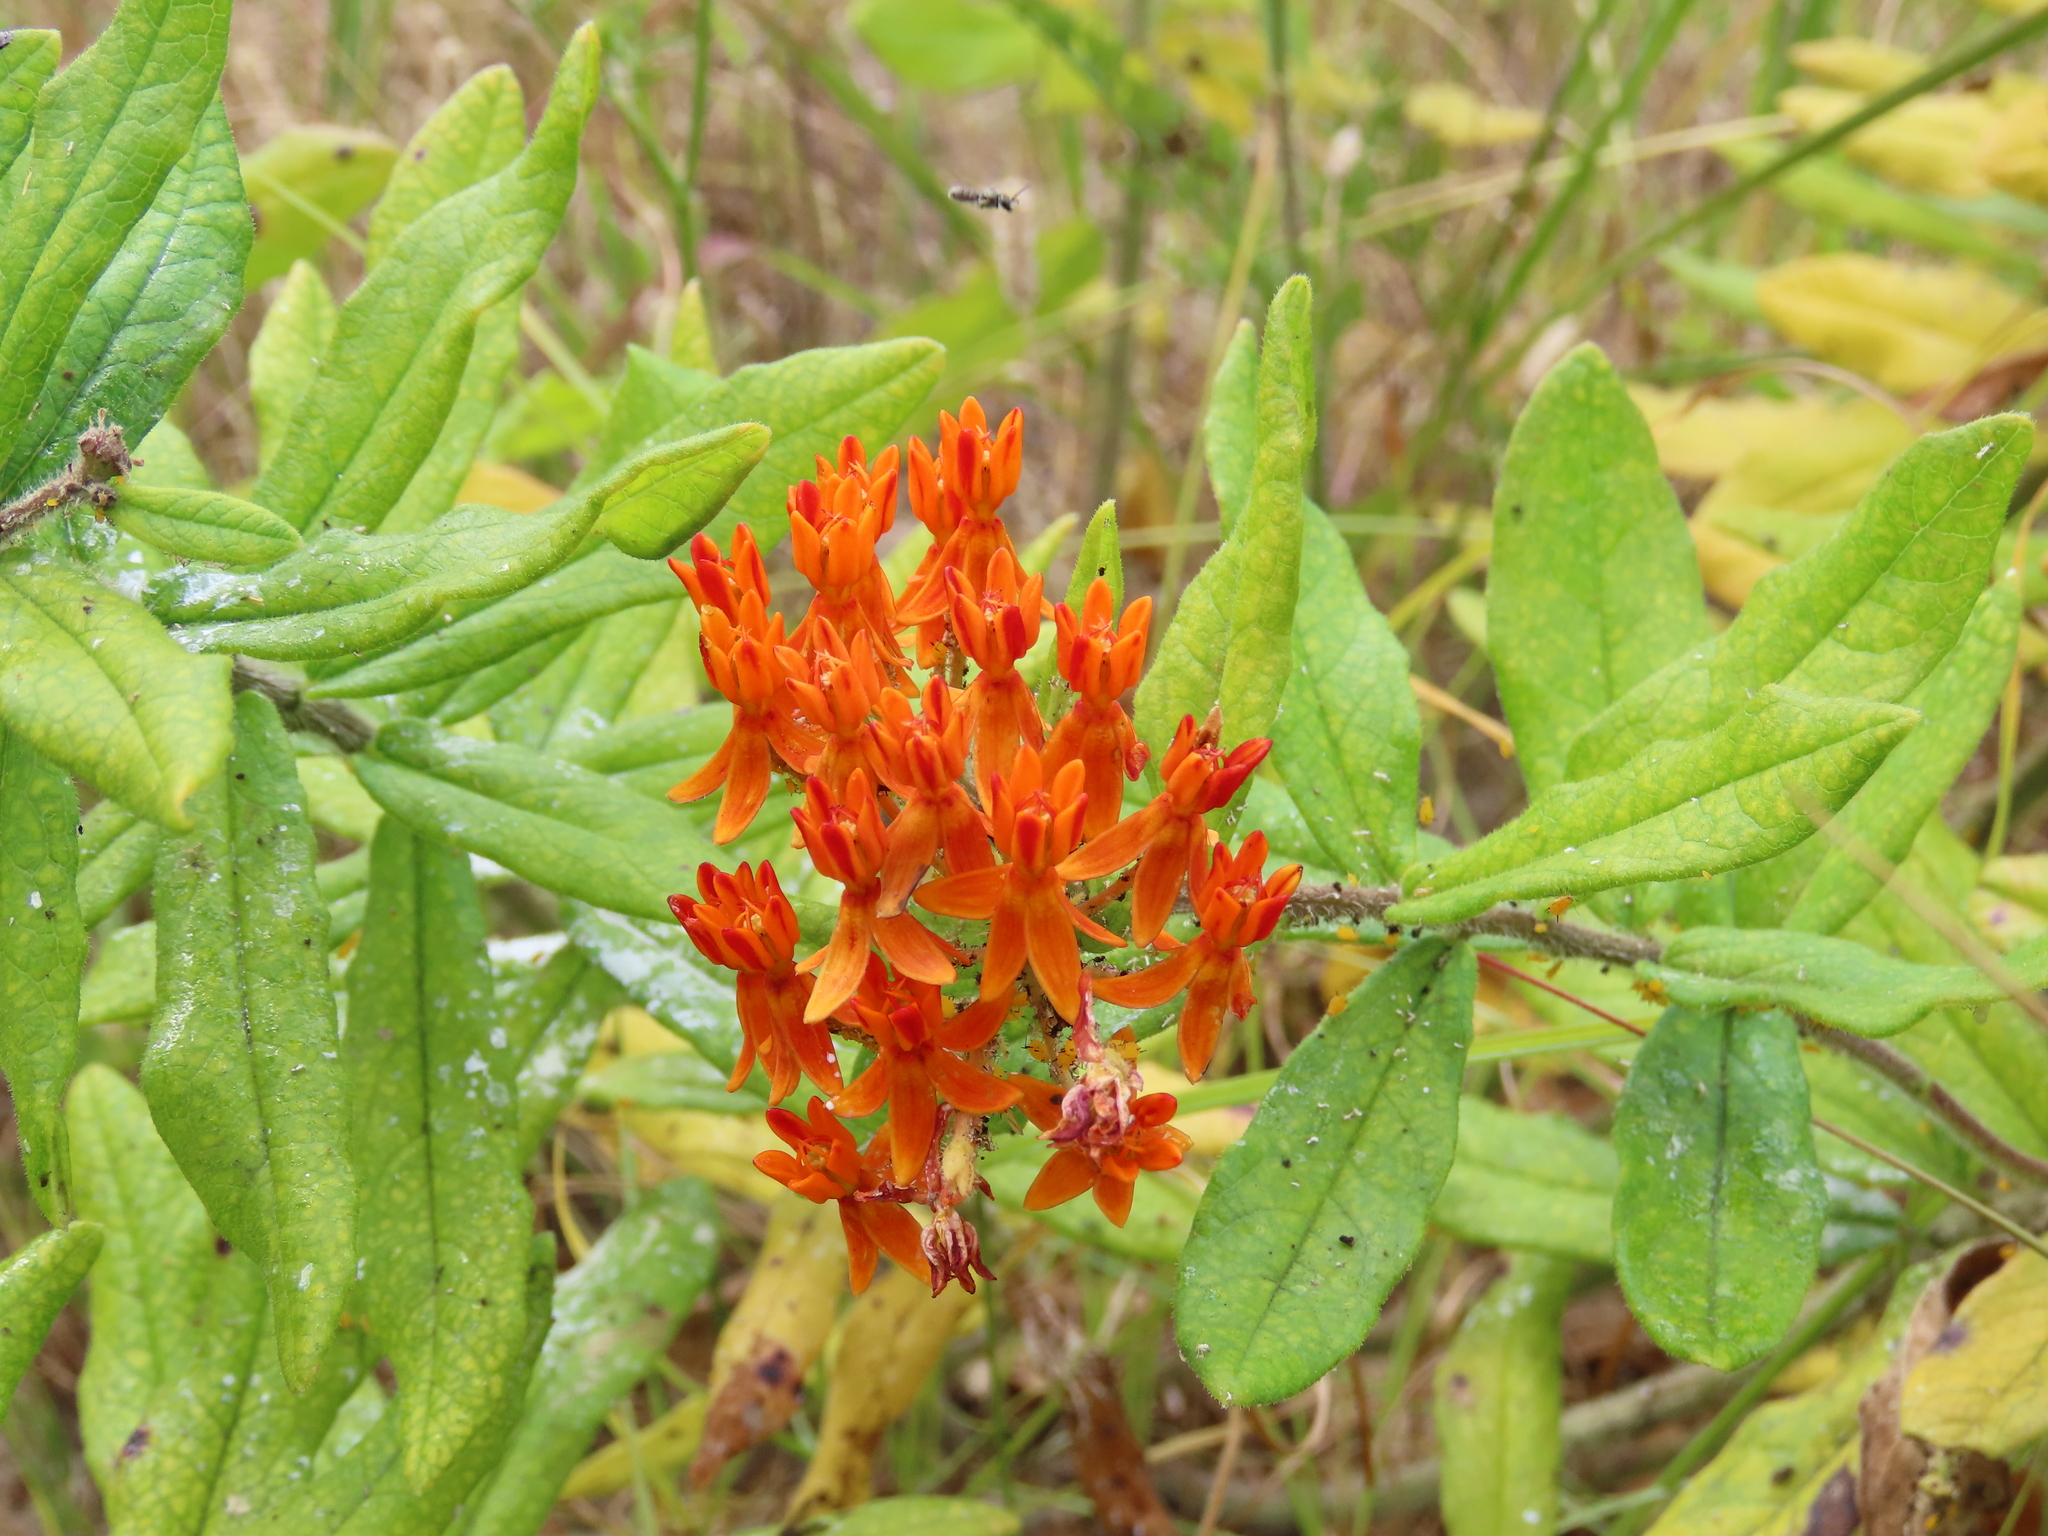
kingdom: Plantae
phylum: Tracheophyta
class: Magnoliopsida
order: Gentianales
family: Apocynaceae
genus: Asclepias
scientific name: Asclepias tuberosa
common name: Butterfly milkweed
